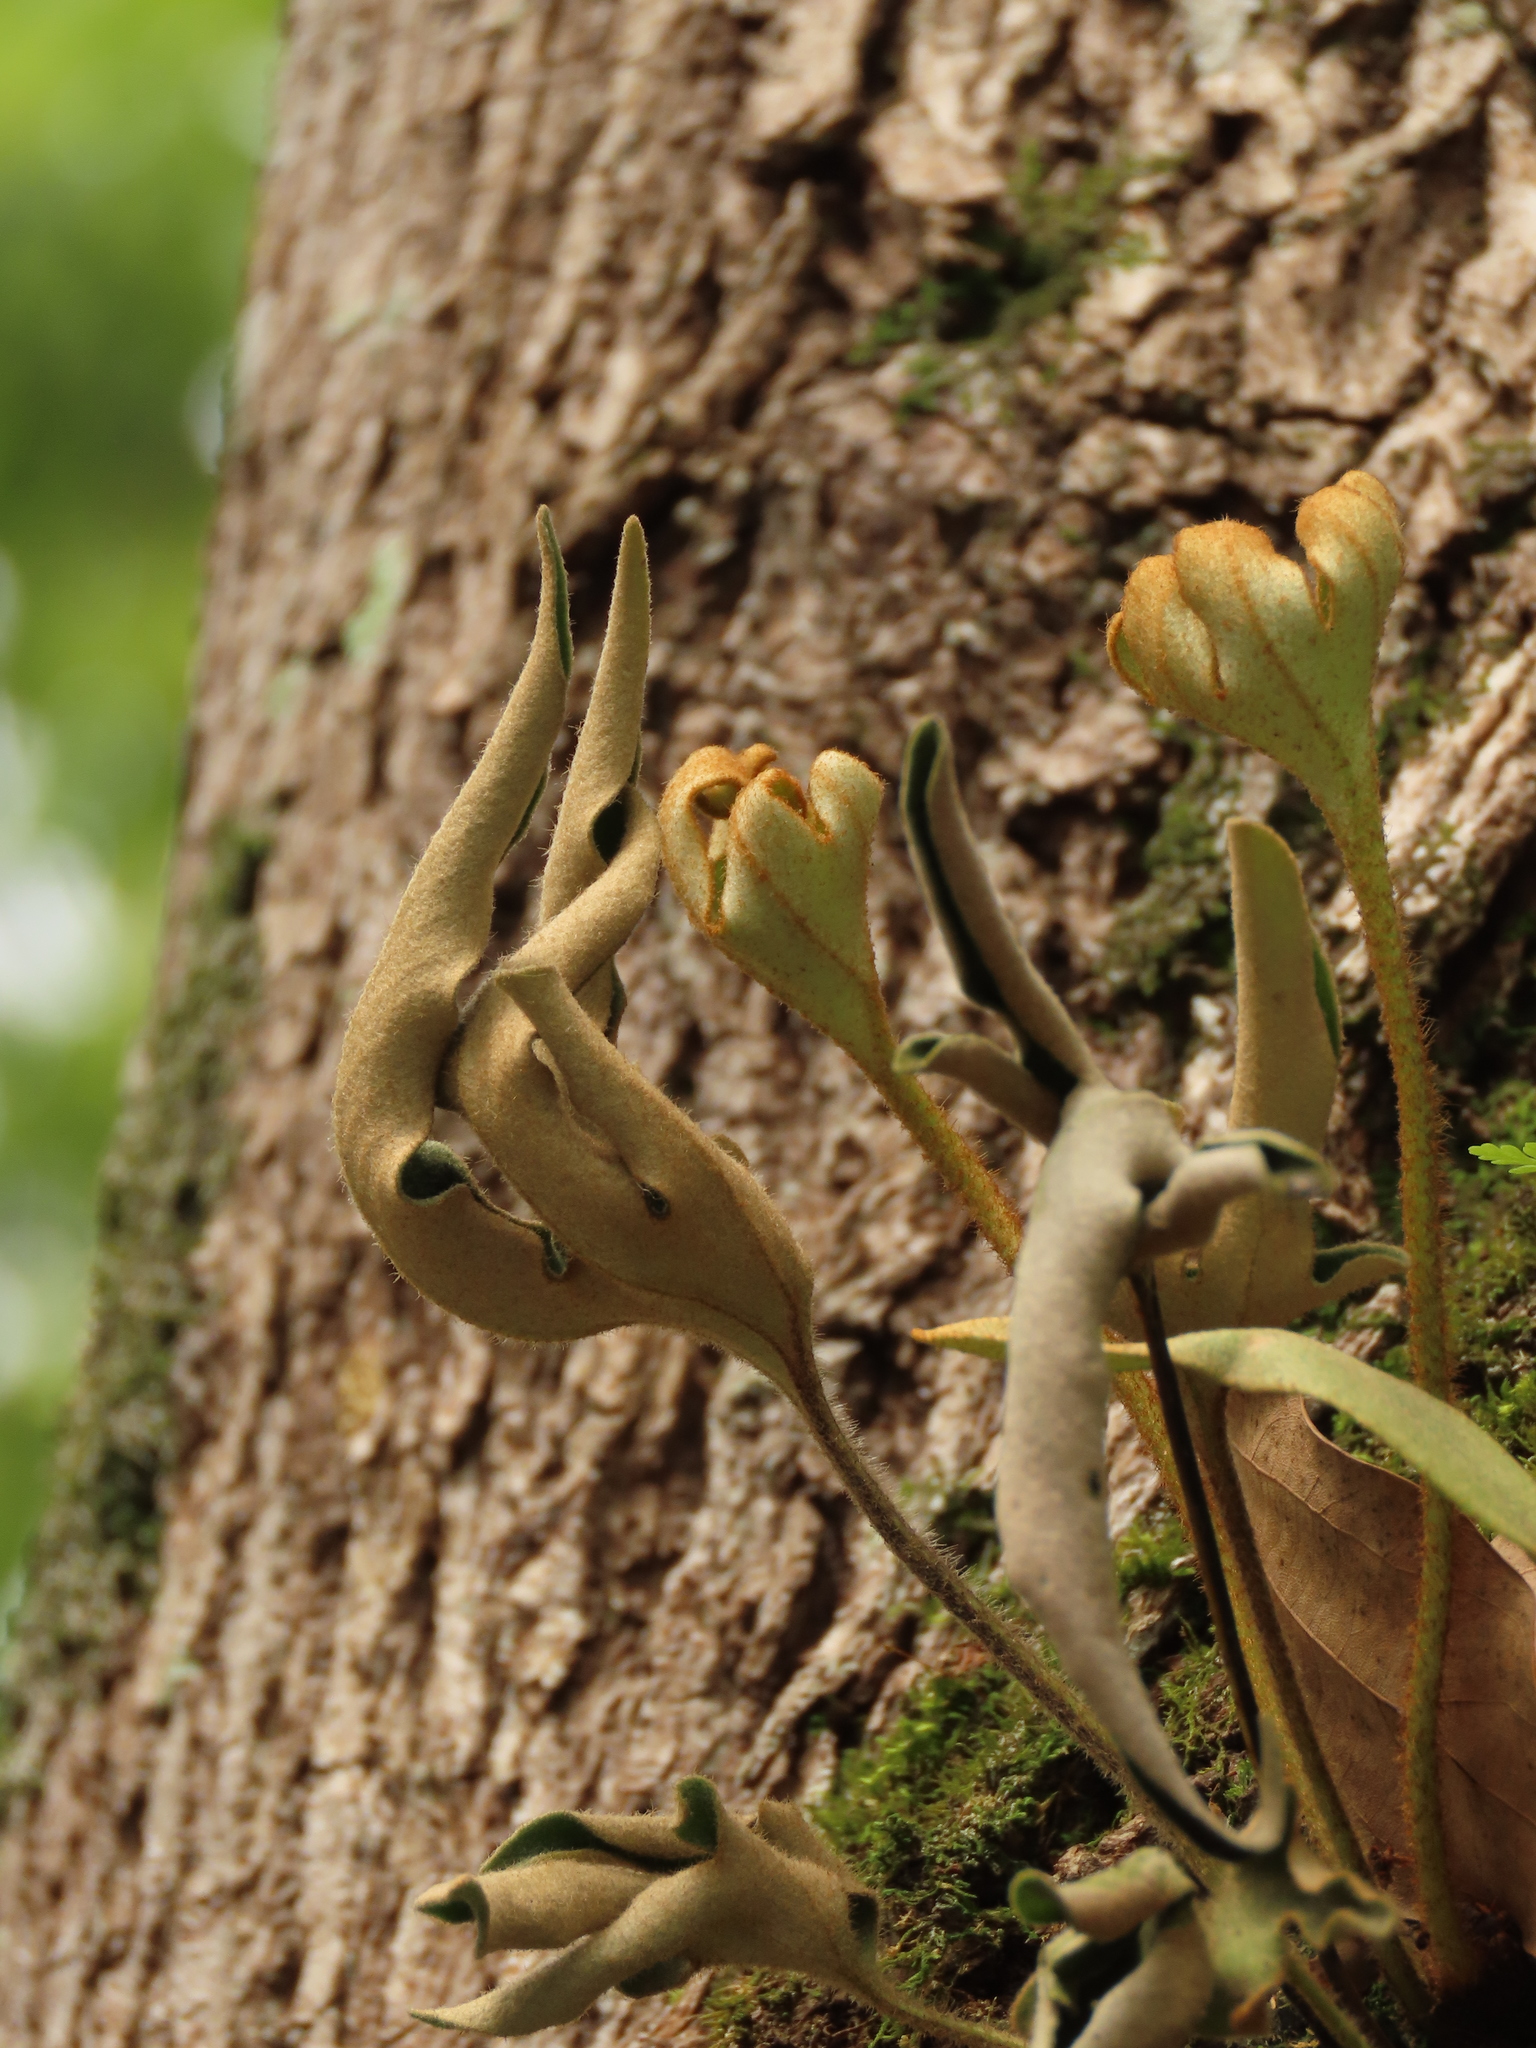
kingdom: Plantae
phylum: Tracheophyta
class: Polypodiopsida
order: Polypodiales
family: Polypodiaceae
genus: Pyrrosia
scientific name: Pyrrosia polydactyla
